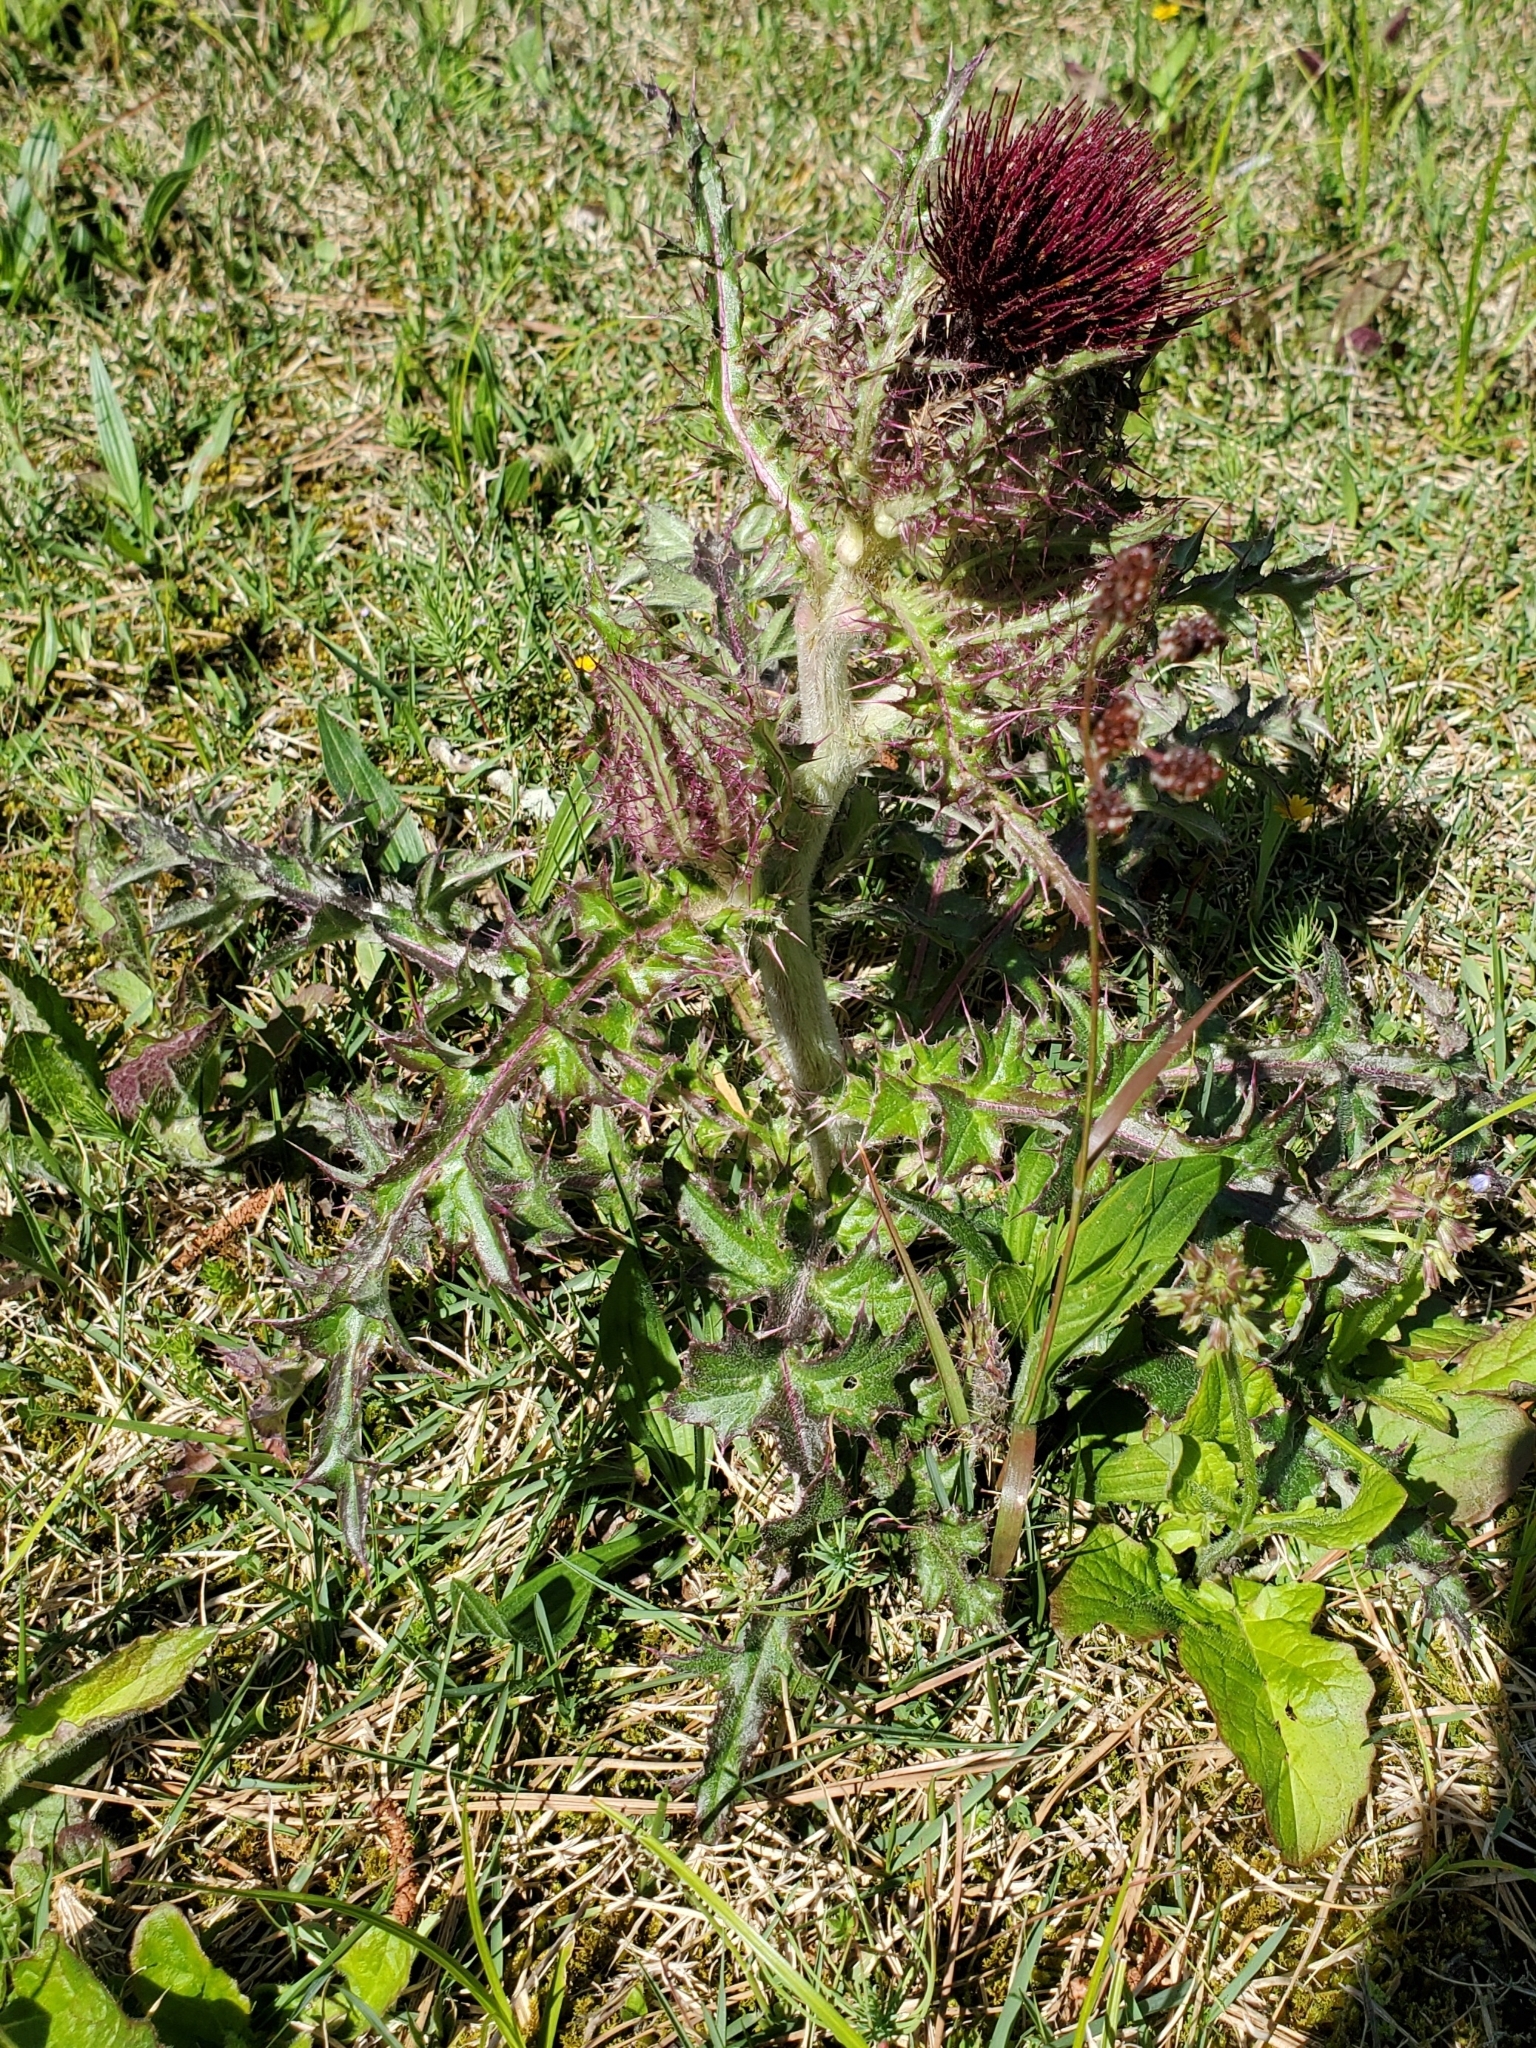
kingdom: Plantae
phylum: Tracheophyta
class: Magnoliopsida
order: Asterales
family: Asteraceae
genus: Cirsium
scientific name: Cirsium horridulum
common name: Bristly thistle
